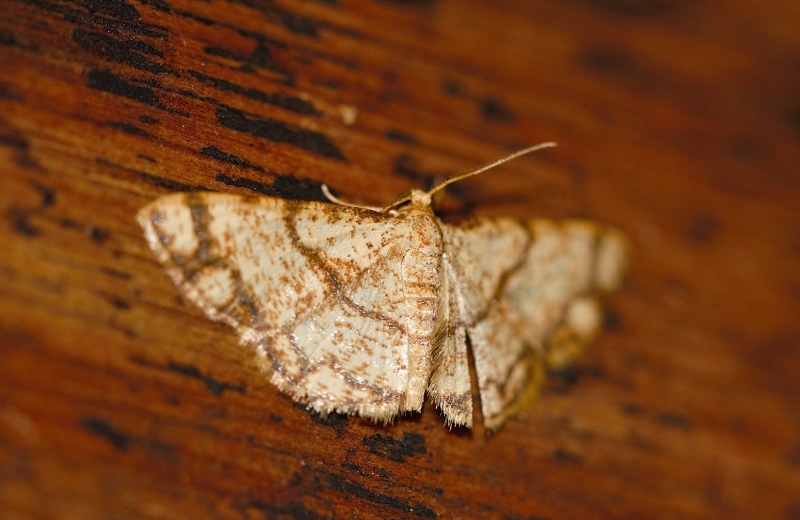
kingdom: Animalia
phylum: Arthropoda
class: Insecta
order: Lepidoptera
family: Geometridae
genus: Lomographa
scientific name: Lomographa indularia
